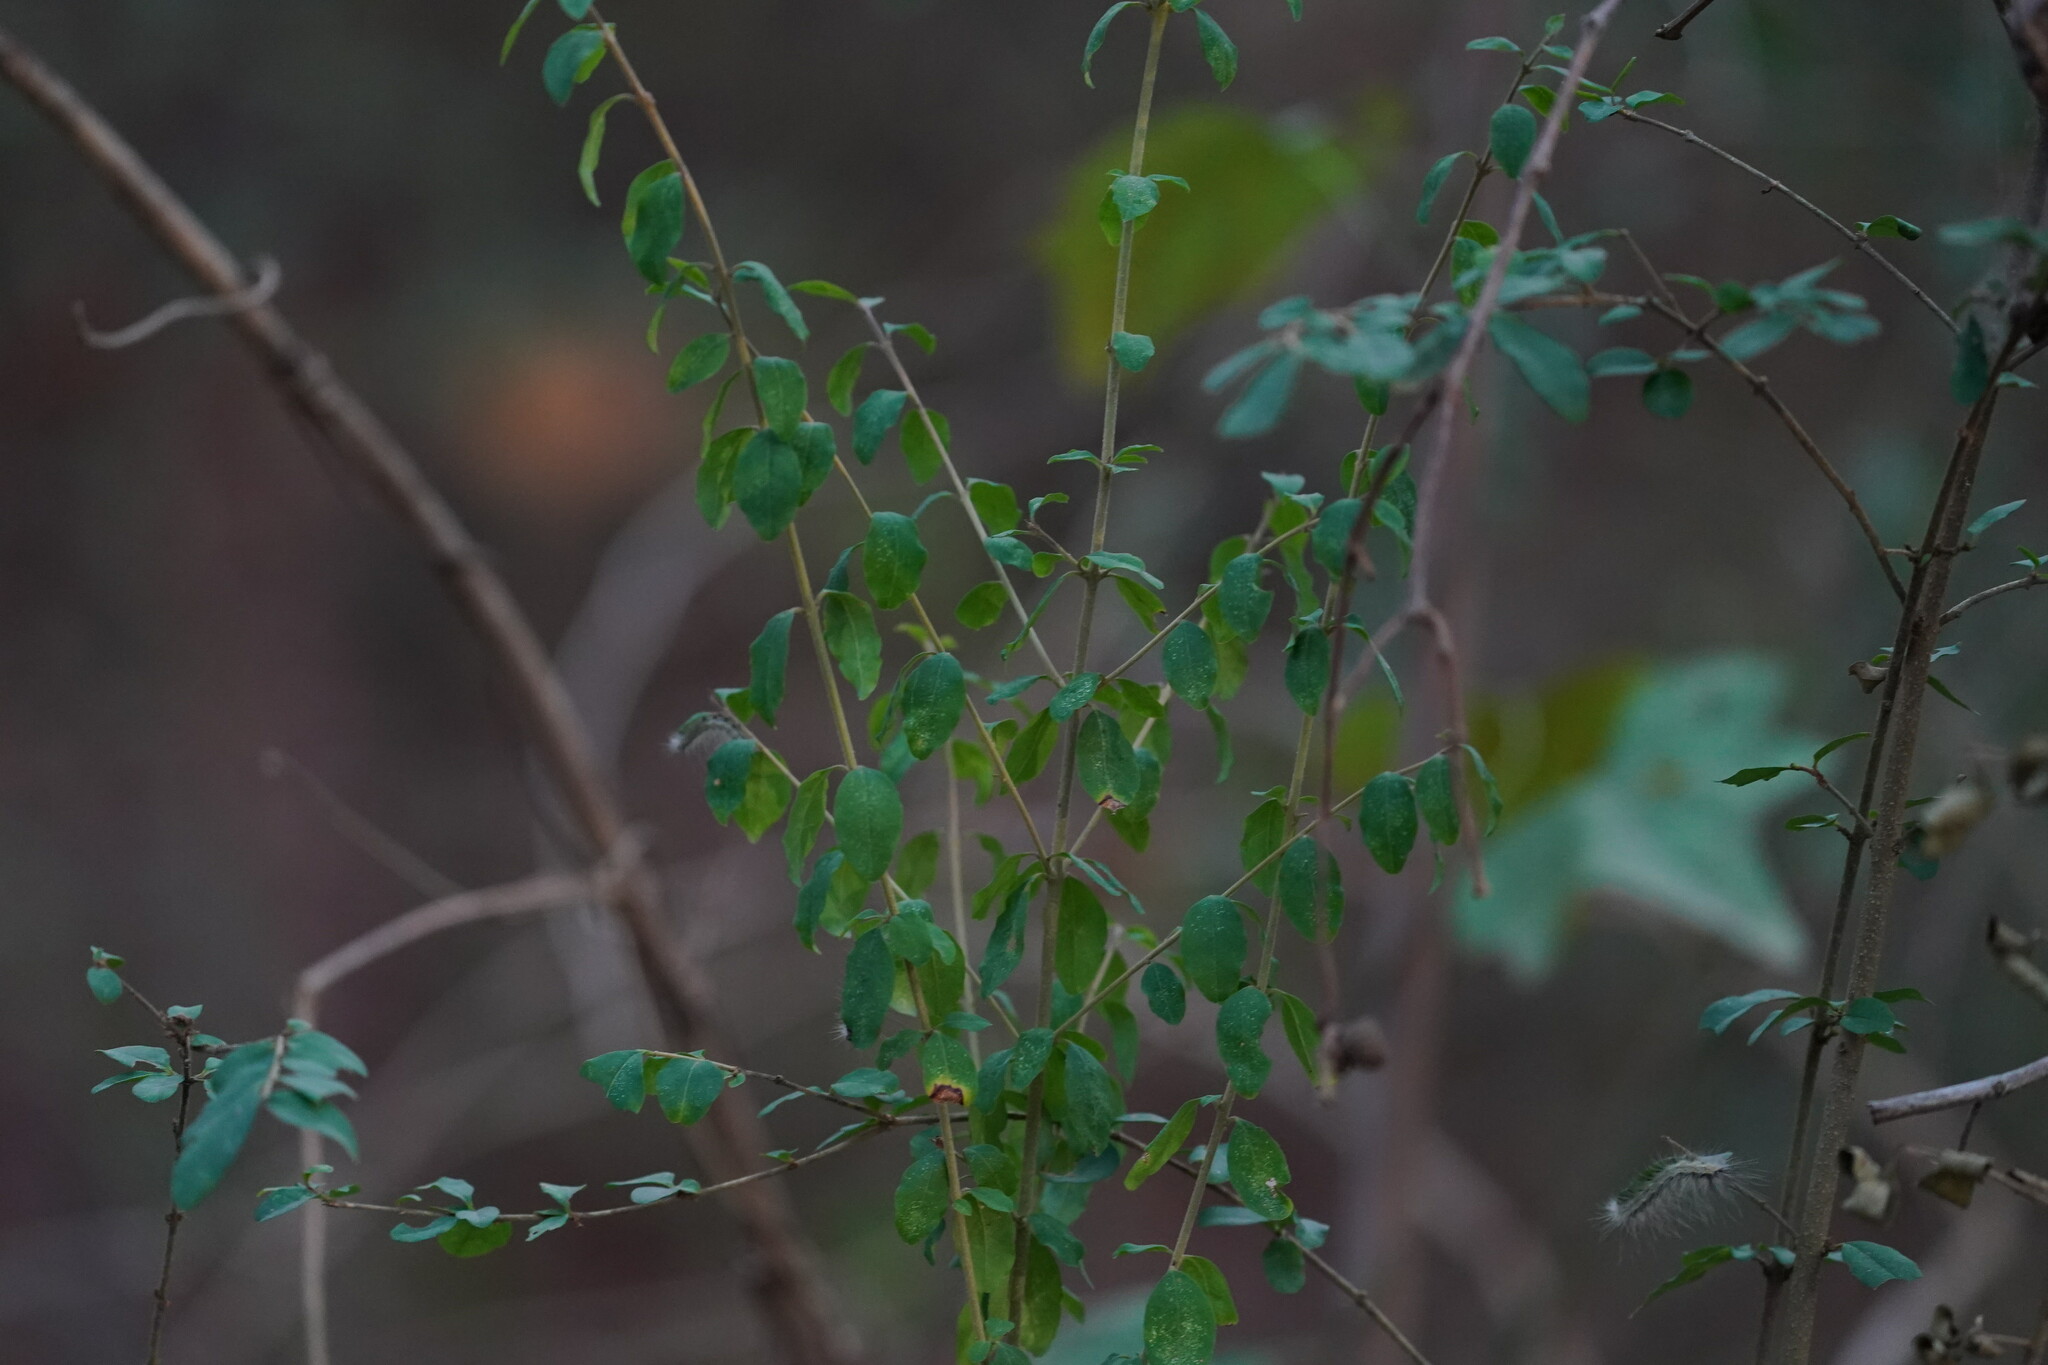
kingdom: Plantae
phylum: Tracheophyta
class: Magnoliopsida
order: Lamiales
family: Oleaceae
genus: Ligustrum
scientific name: Ligustrum sinense
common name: Chinese privet
